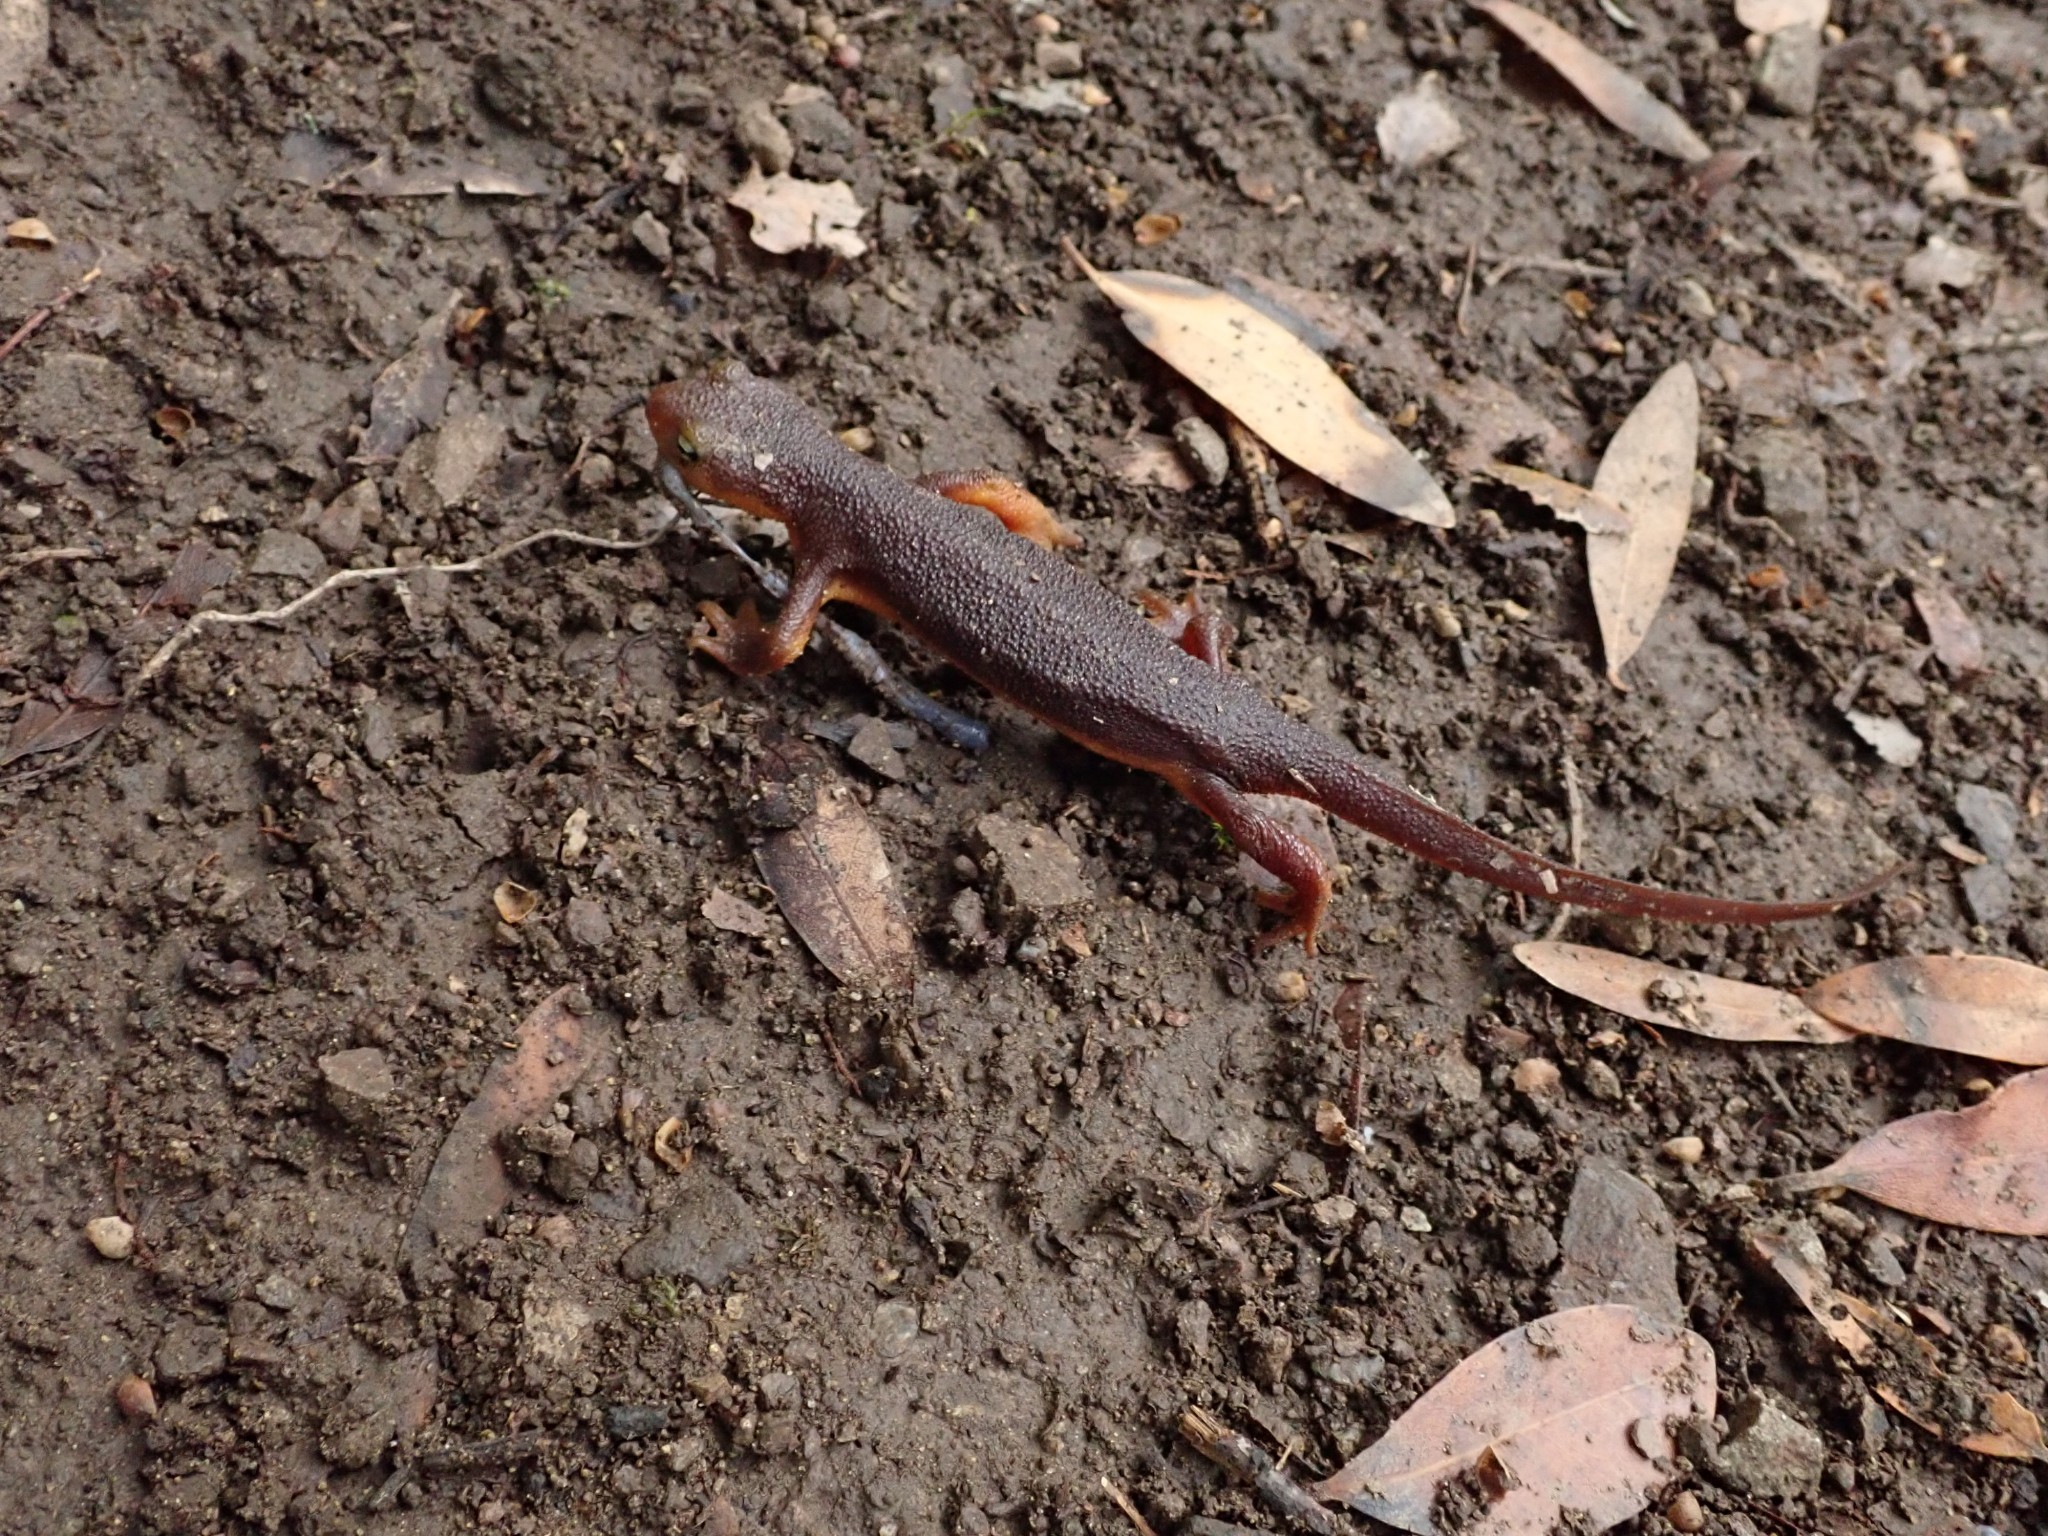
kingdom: Animalia
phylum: Chordata
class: Amphibia
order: Caudata
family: Salamandridae
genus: Taricha
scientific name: Taricha torosa
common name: California newt
